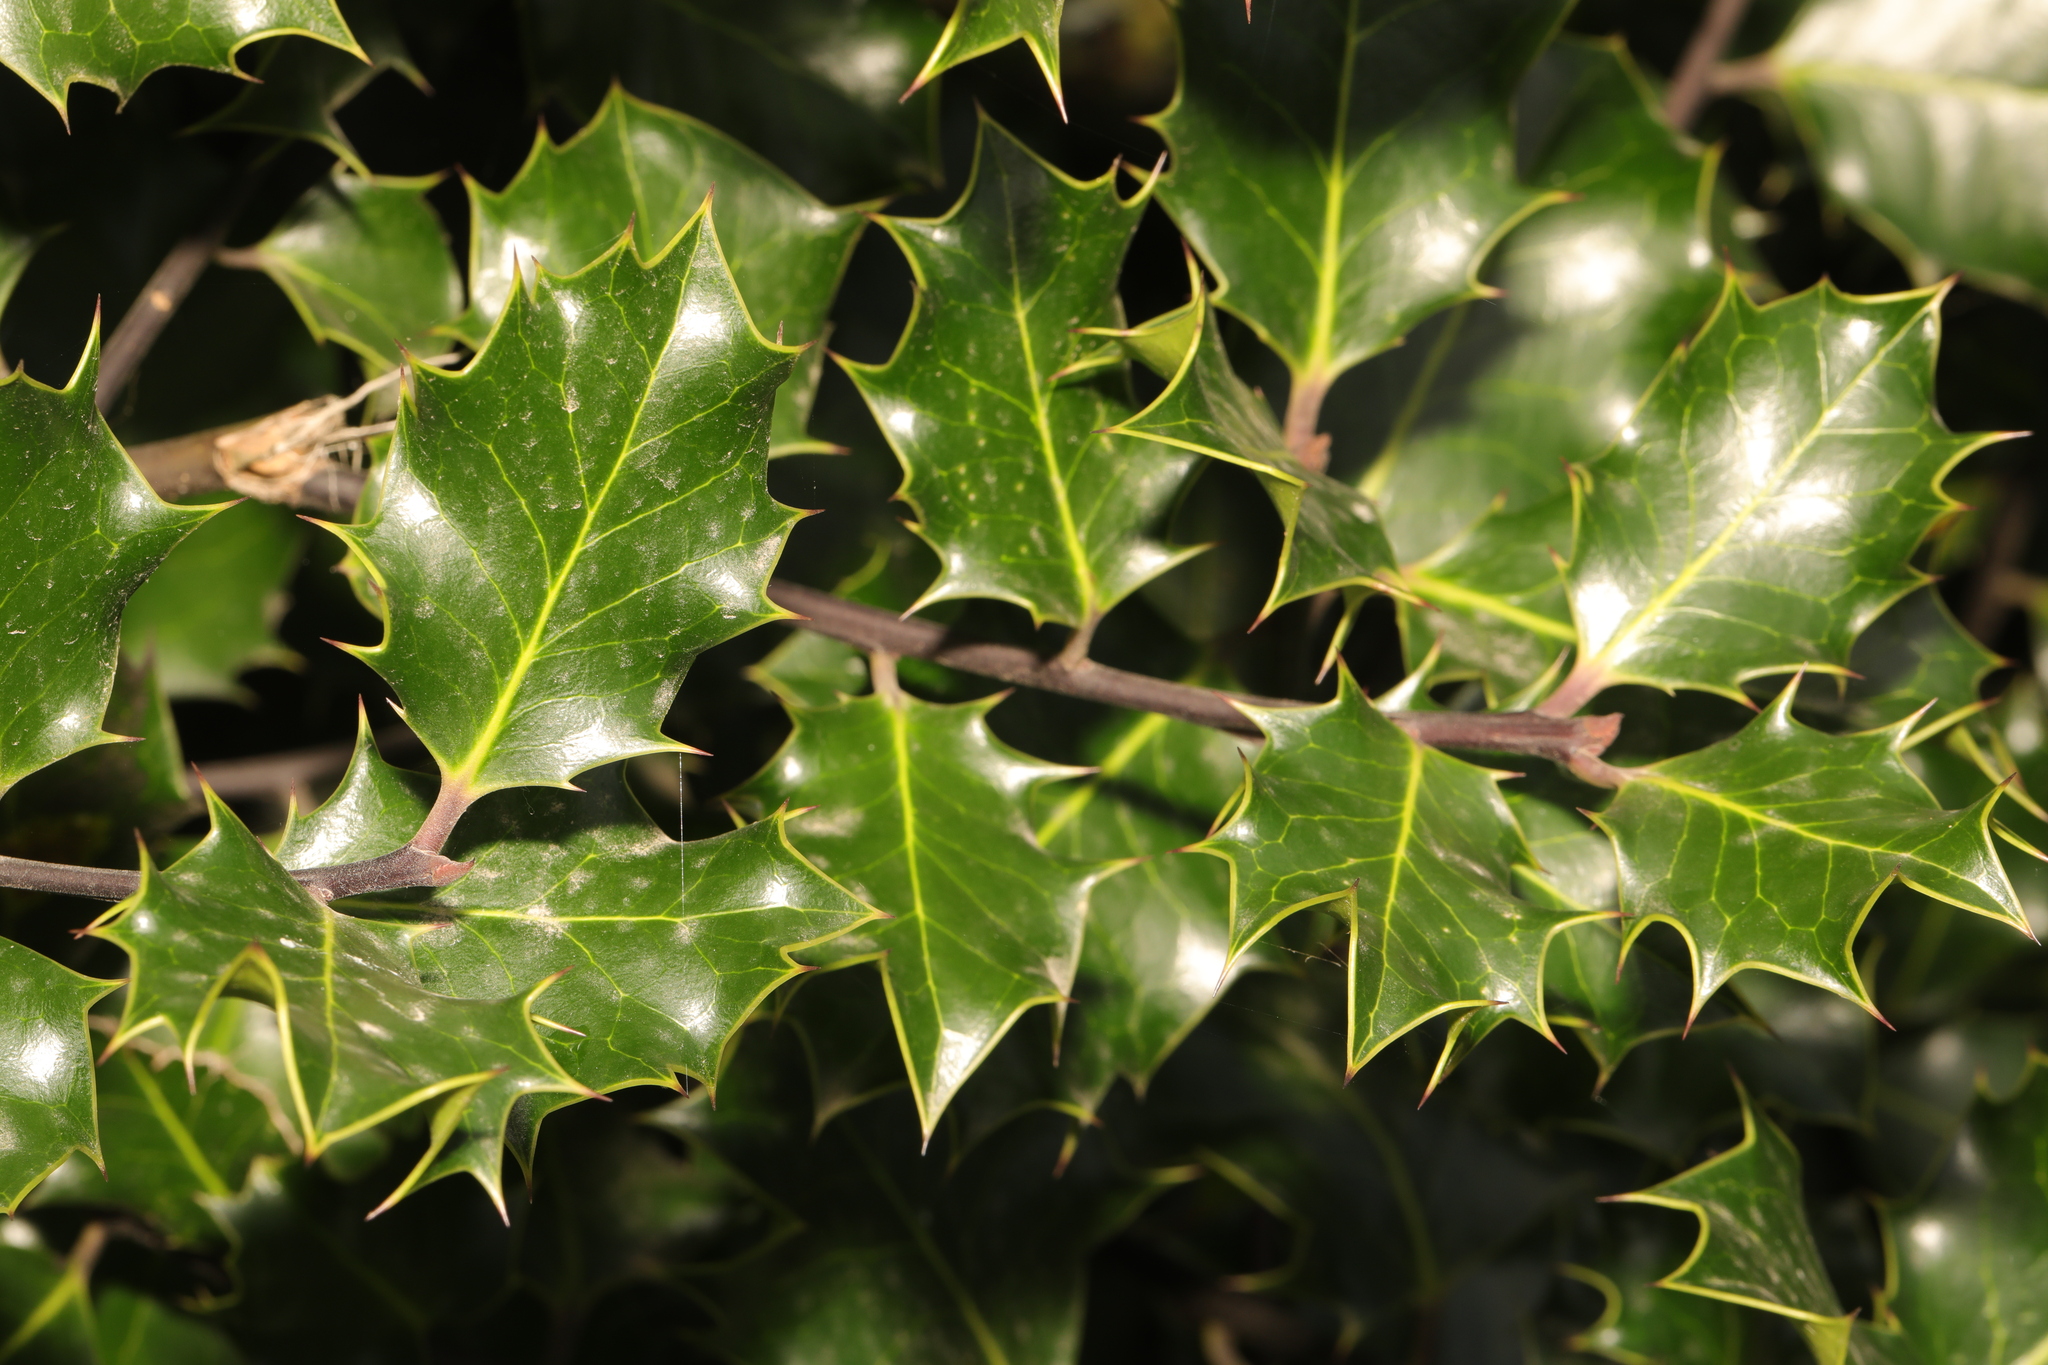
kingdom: Plantae
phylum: Tracheophyta
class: Magnoliopsida
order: Aquifoliales
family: Aquifoliaceae
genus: Ilex
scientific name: Ilex aquifolium
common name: English holly
